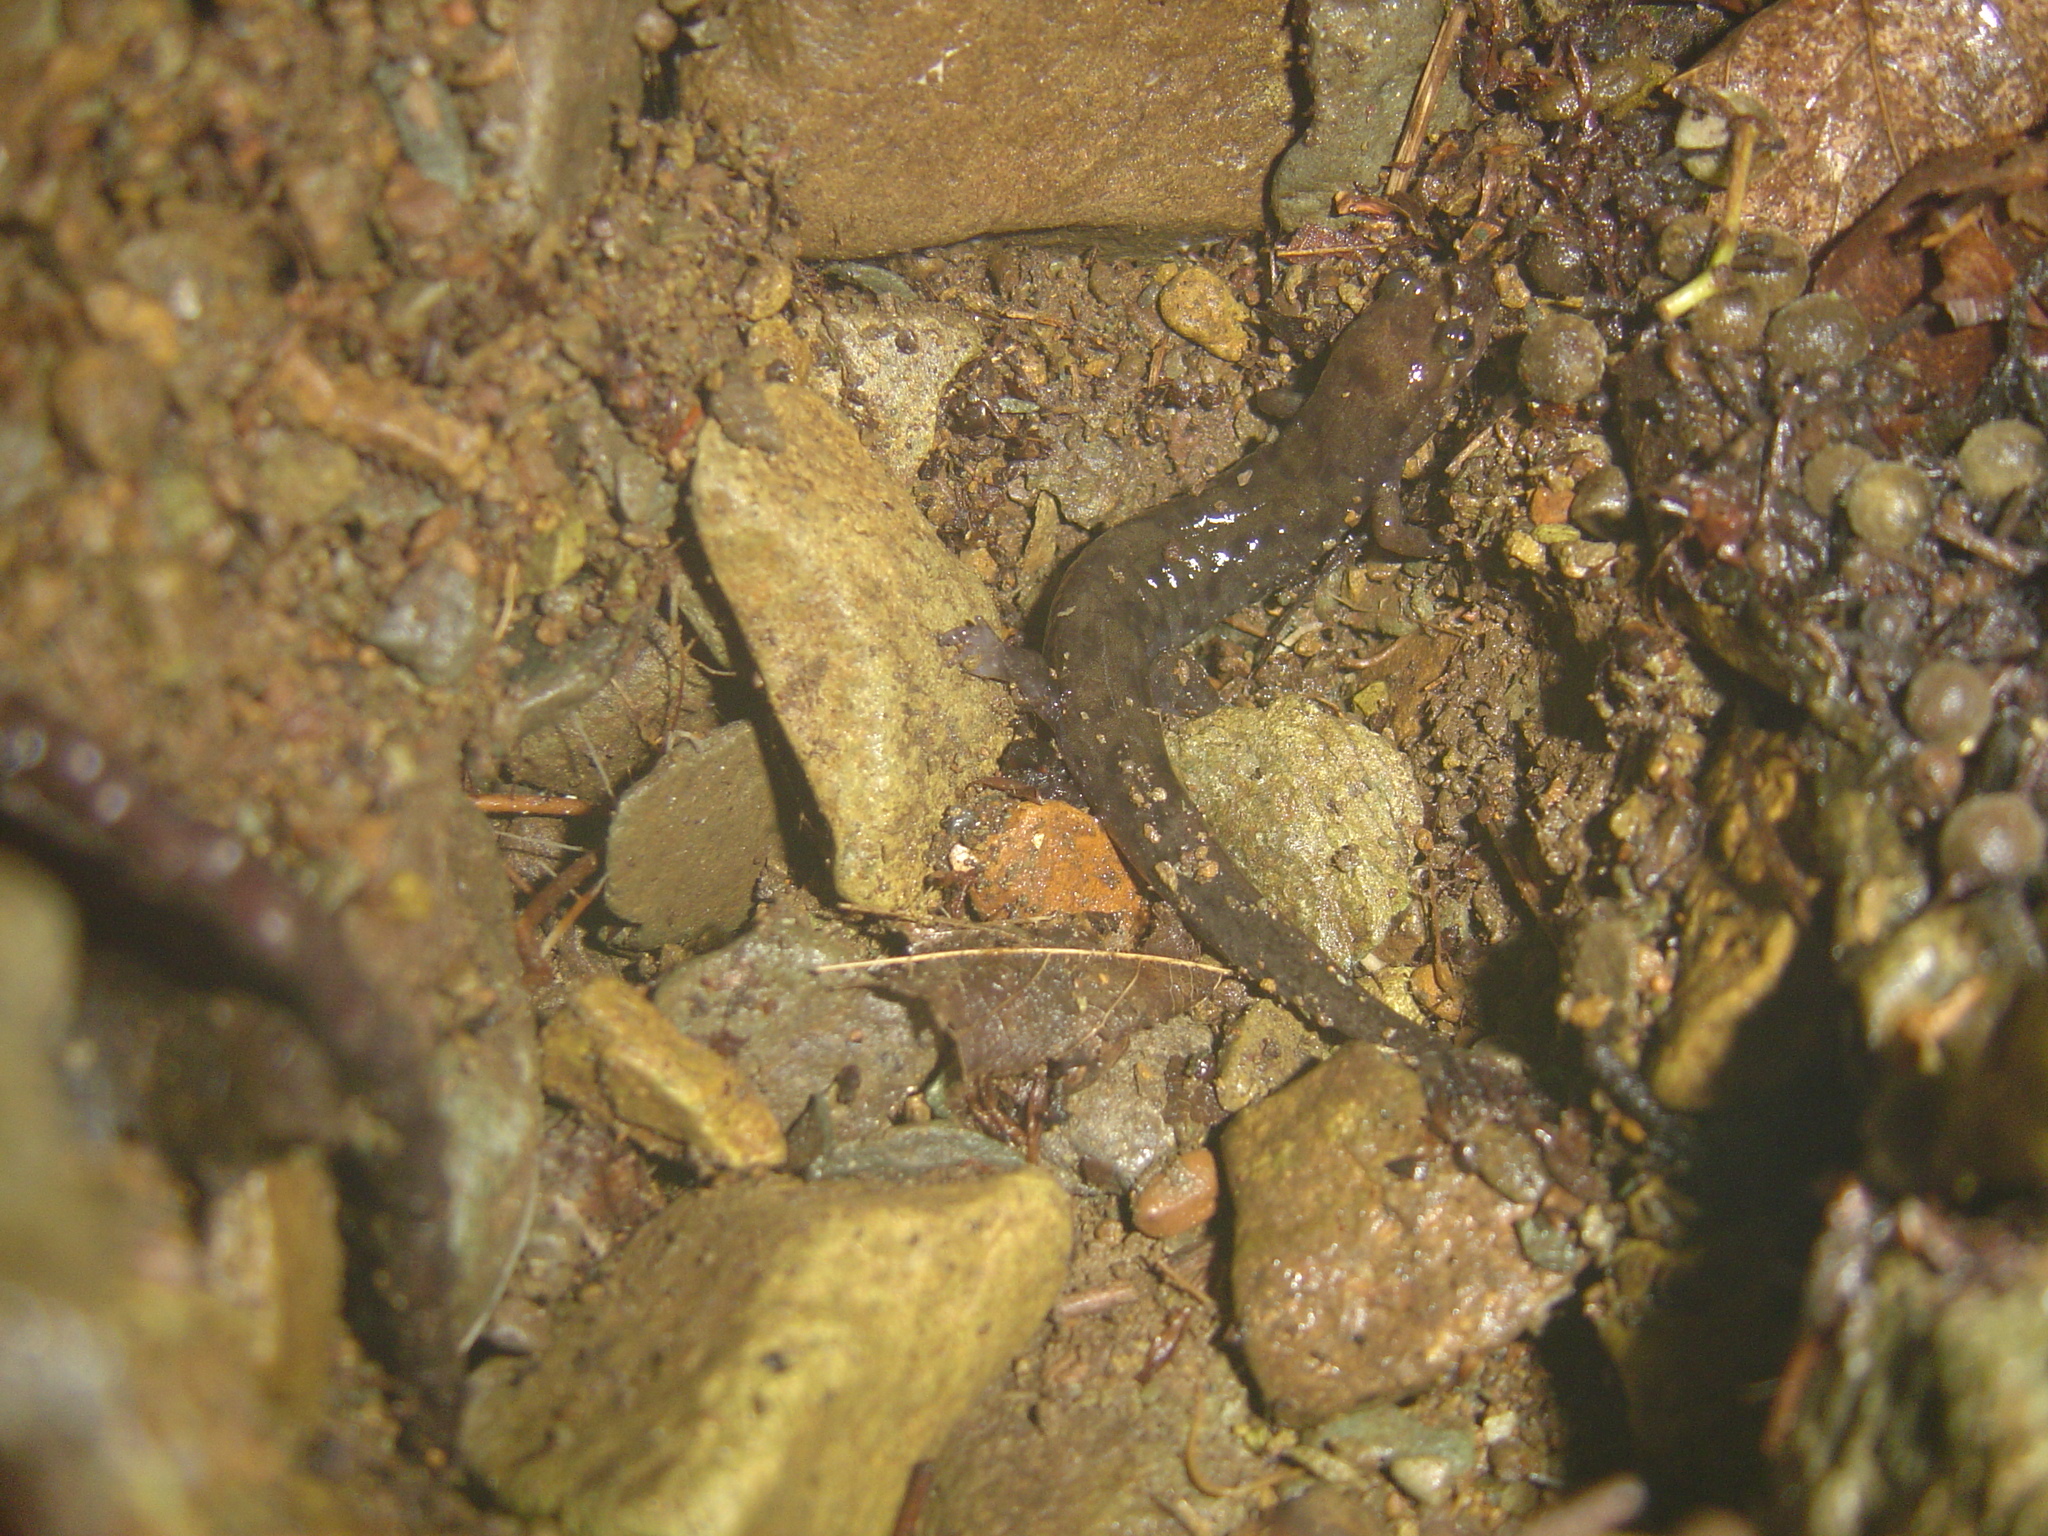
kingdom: Animalia
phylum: Chordata
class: Amphibia
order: Caudata
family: Plethodontidae
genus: Desmognathus
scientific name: Desmognathus monticola
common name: Seal salamander
